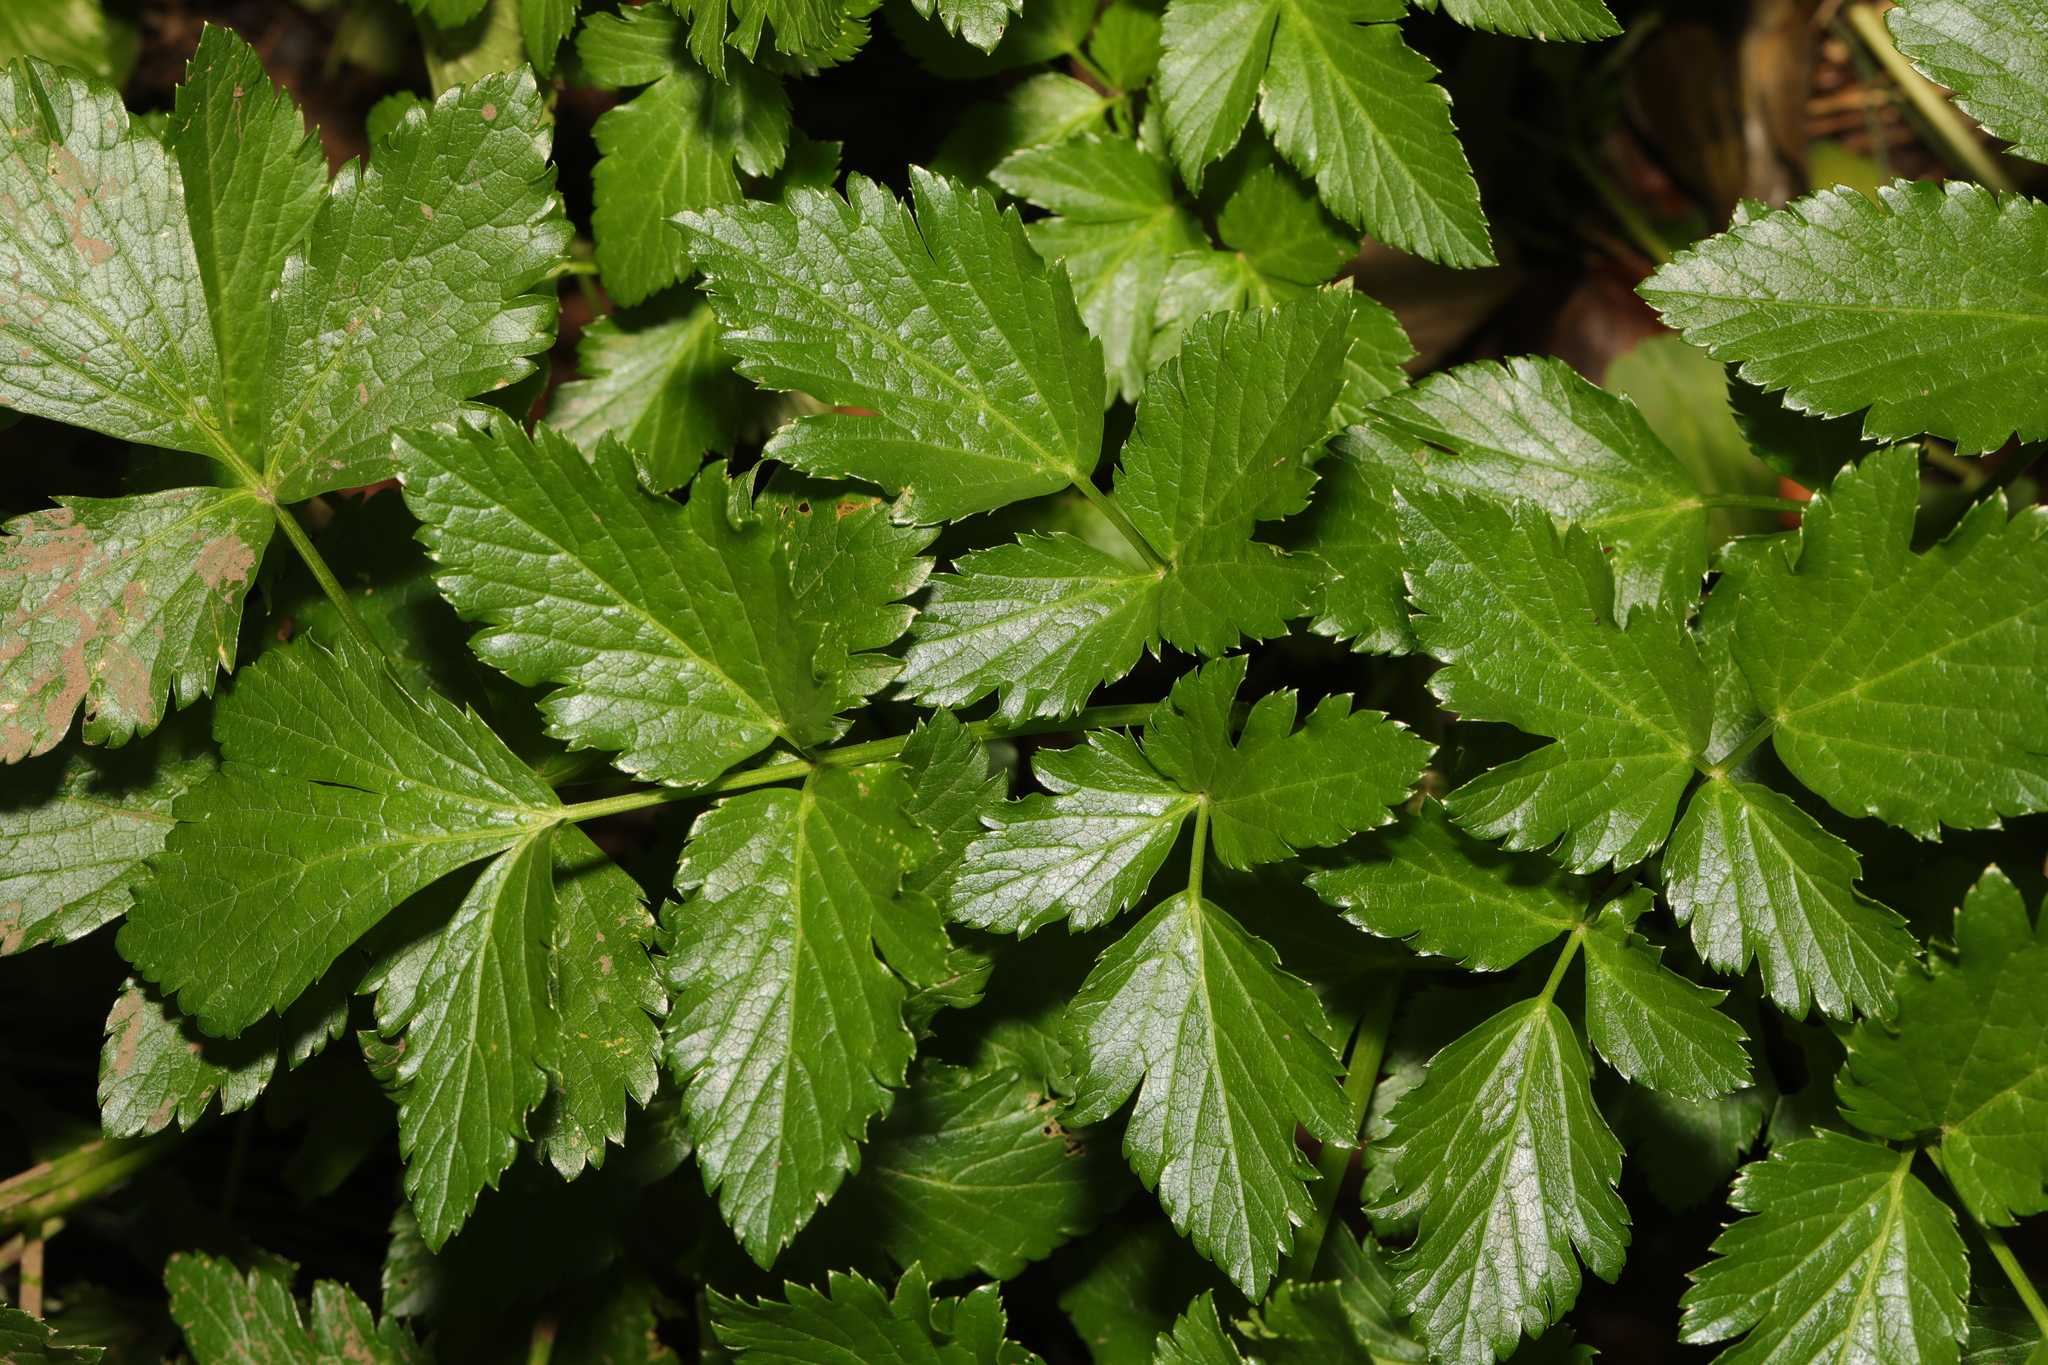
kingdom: Plantae
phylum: Tracheophyta
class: Magnoliopsida
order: Apiales
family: Apiaceae
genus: Smyrnium
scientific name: Smyrnium olusatrum
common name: Alexanders
